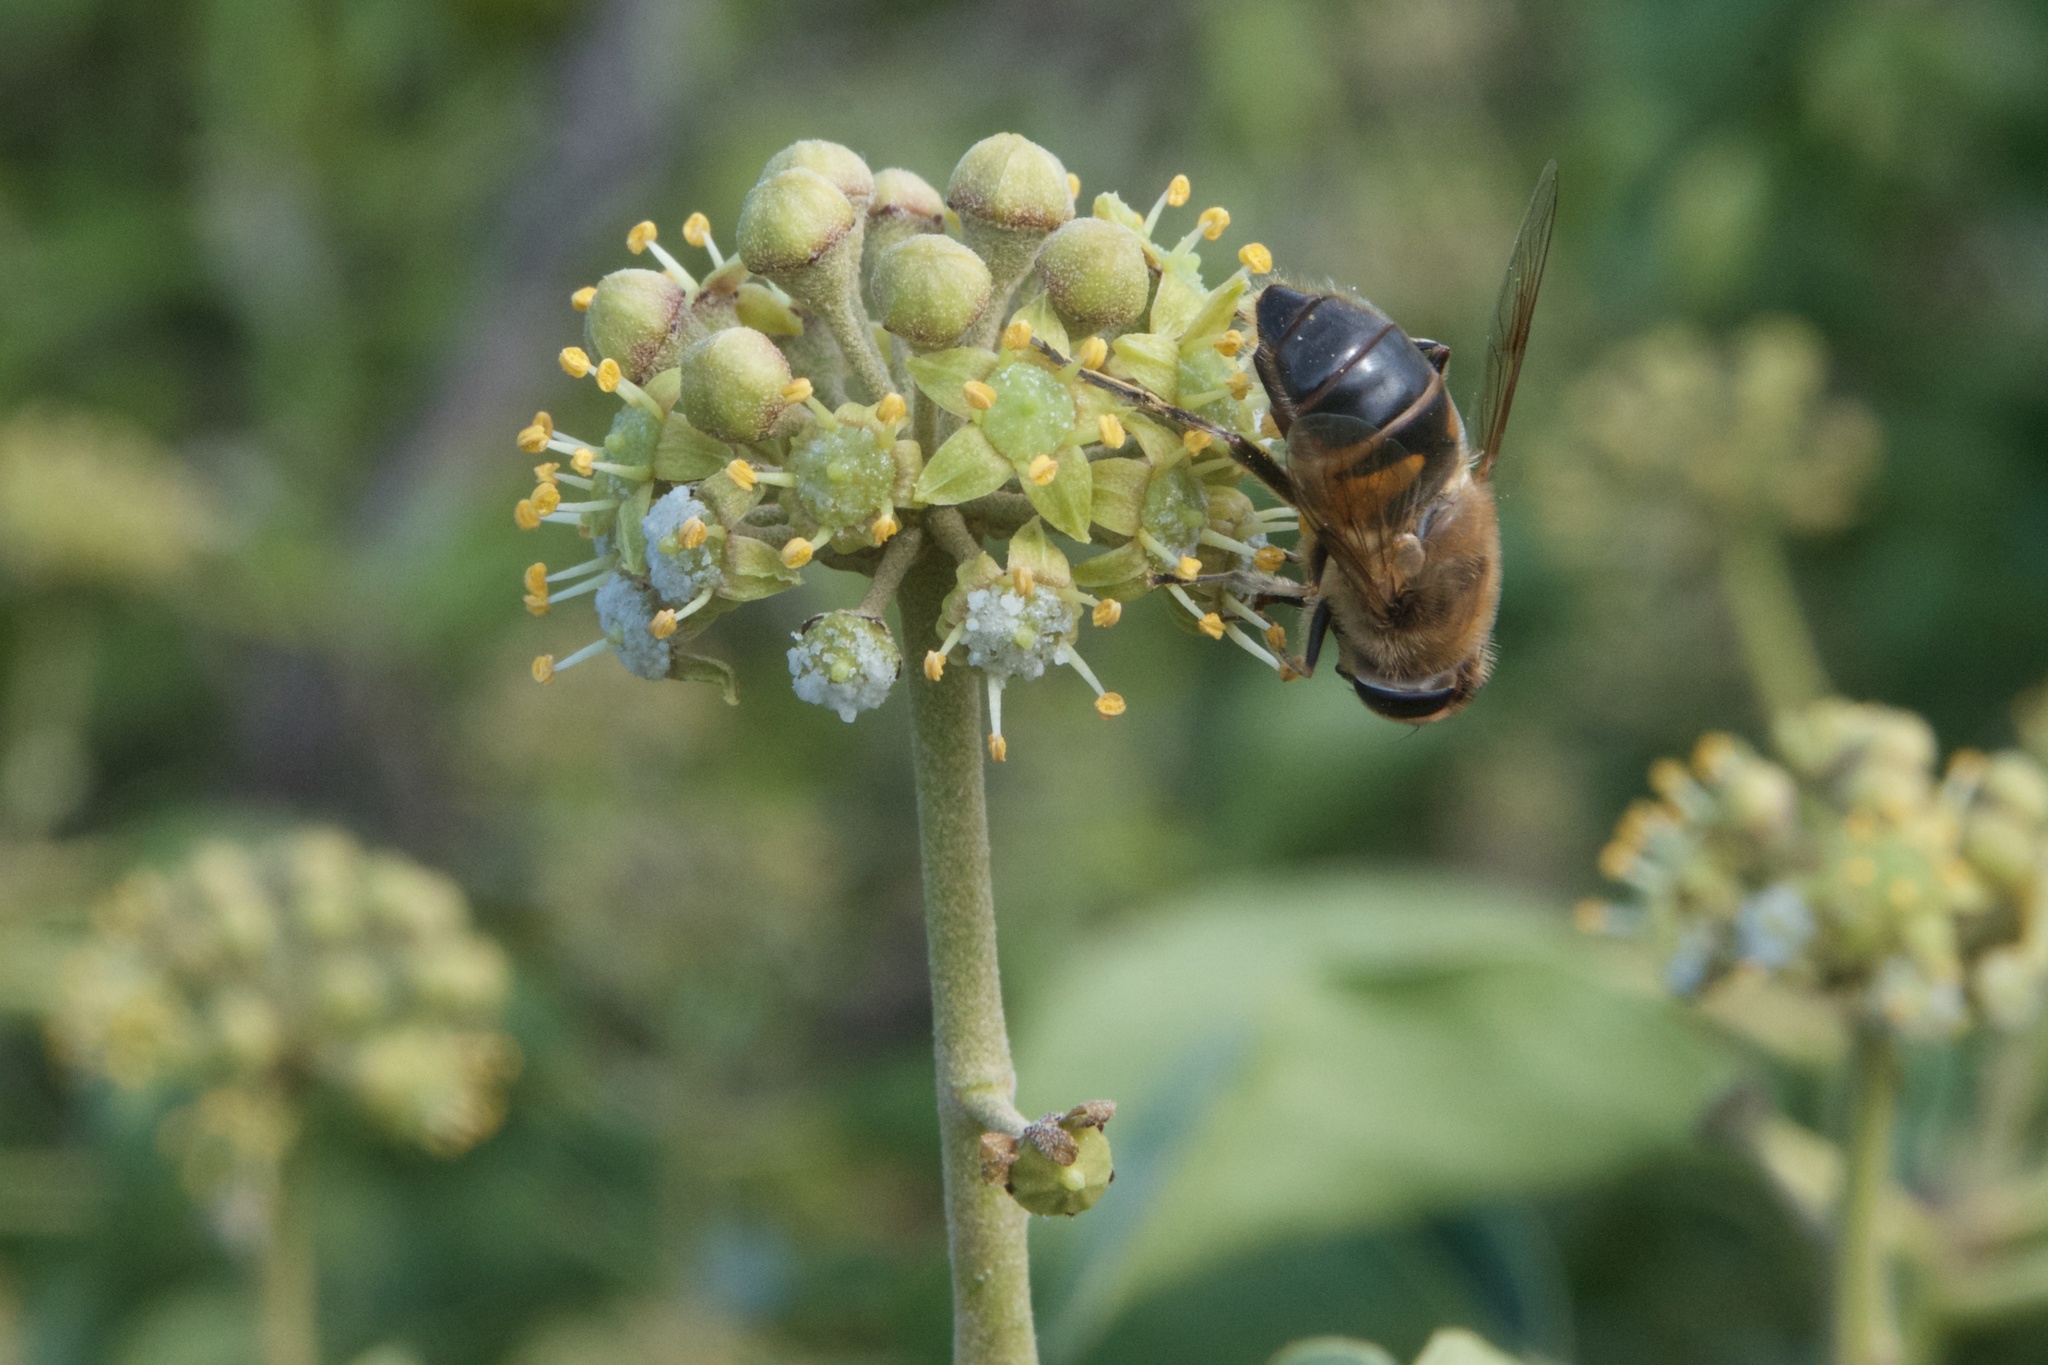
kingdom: Animalia
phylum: Arthropoda
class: Insecta
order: Diptera
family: Syrphidae
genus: Eristalis
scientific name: Eristalis tenax
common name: Drone fly
